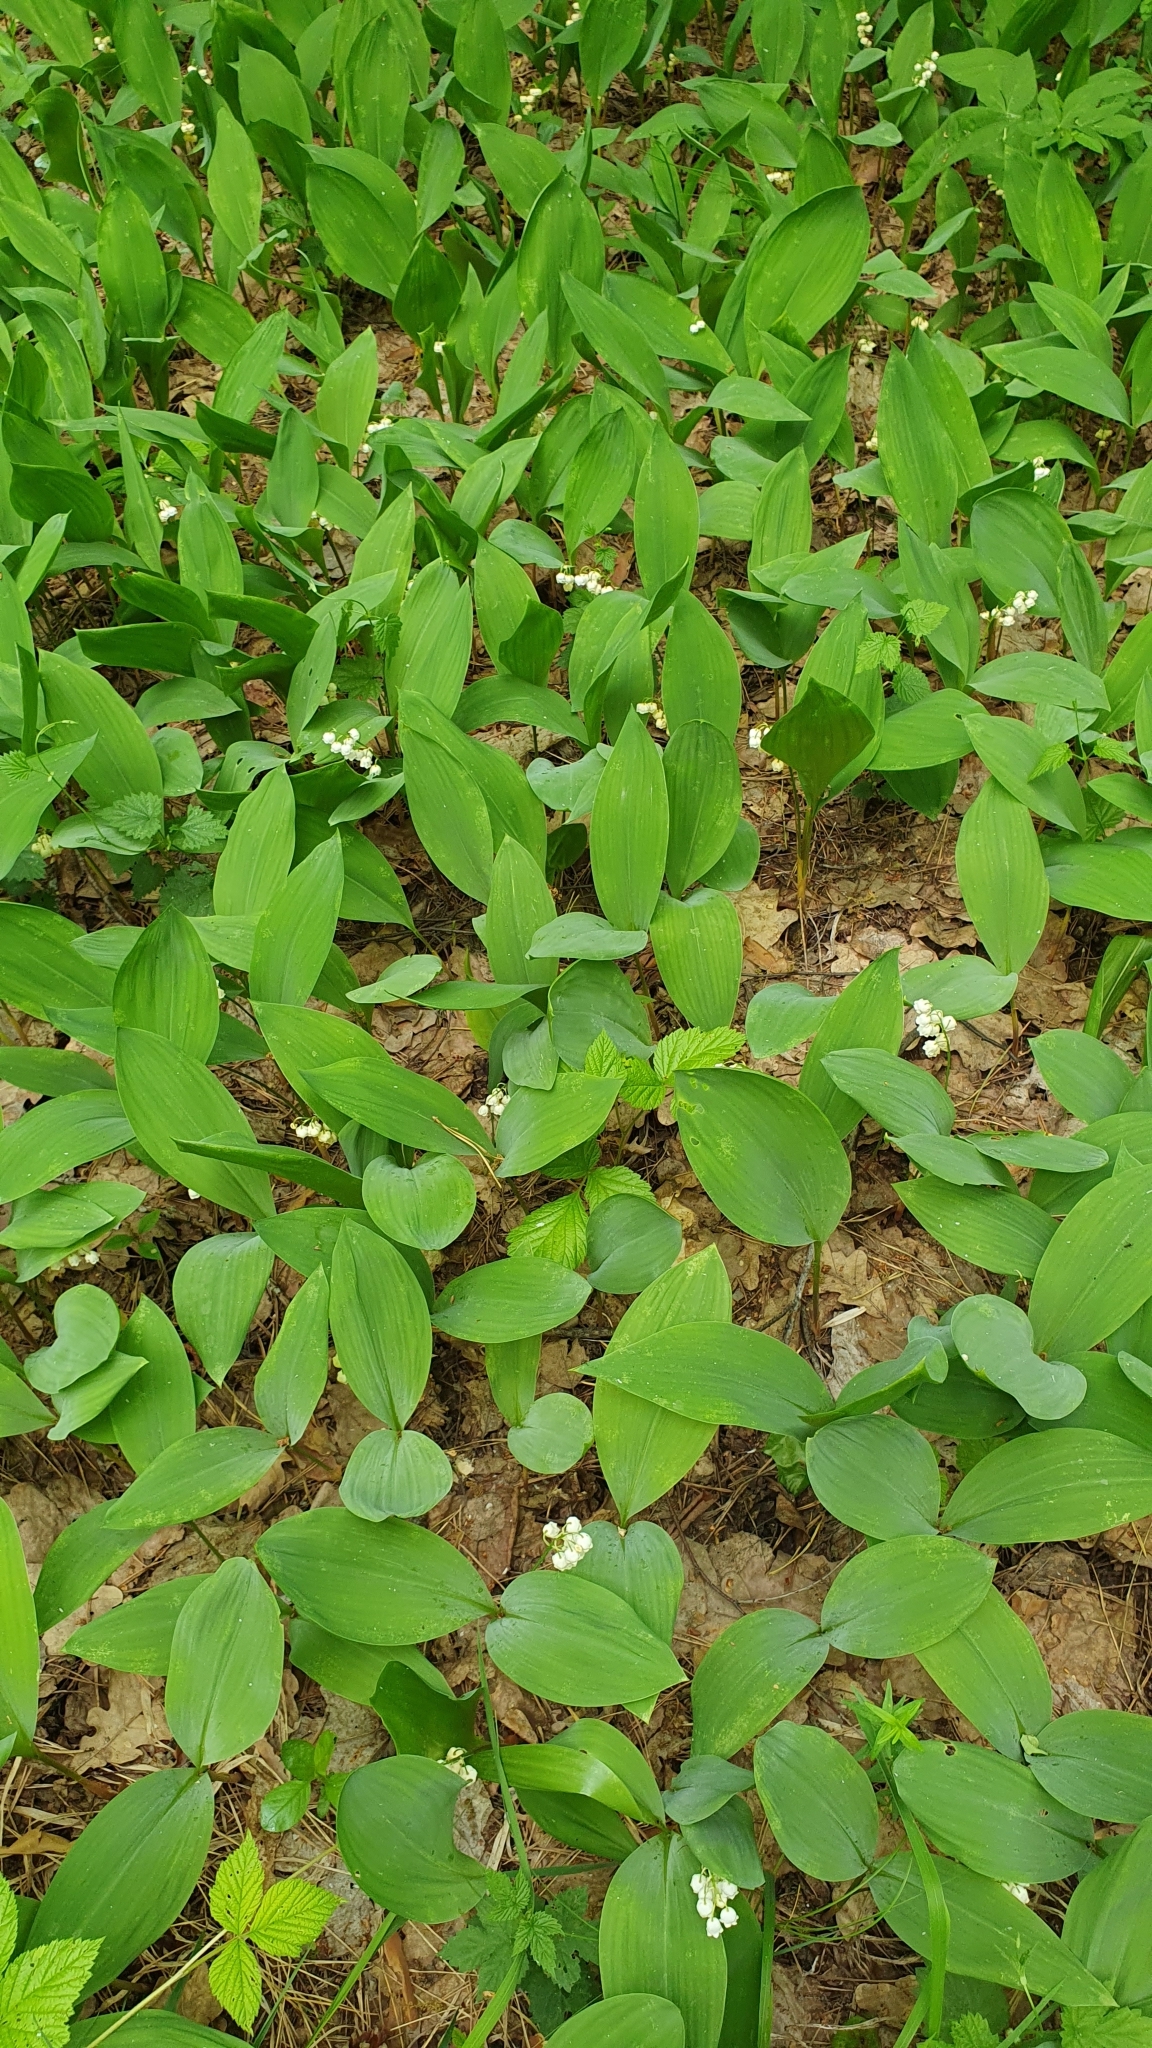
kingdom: Plantae
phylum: Tracheophyta
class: Liliopsida
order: Asparagales
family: Asparagaceae
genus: Convallaria
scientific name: Convallaria majalis
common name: Lily-of-the-valley
